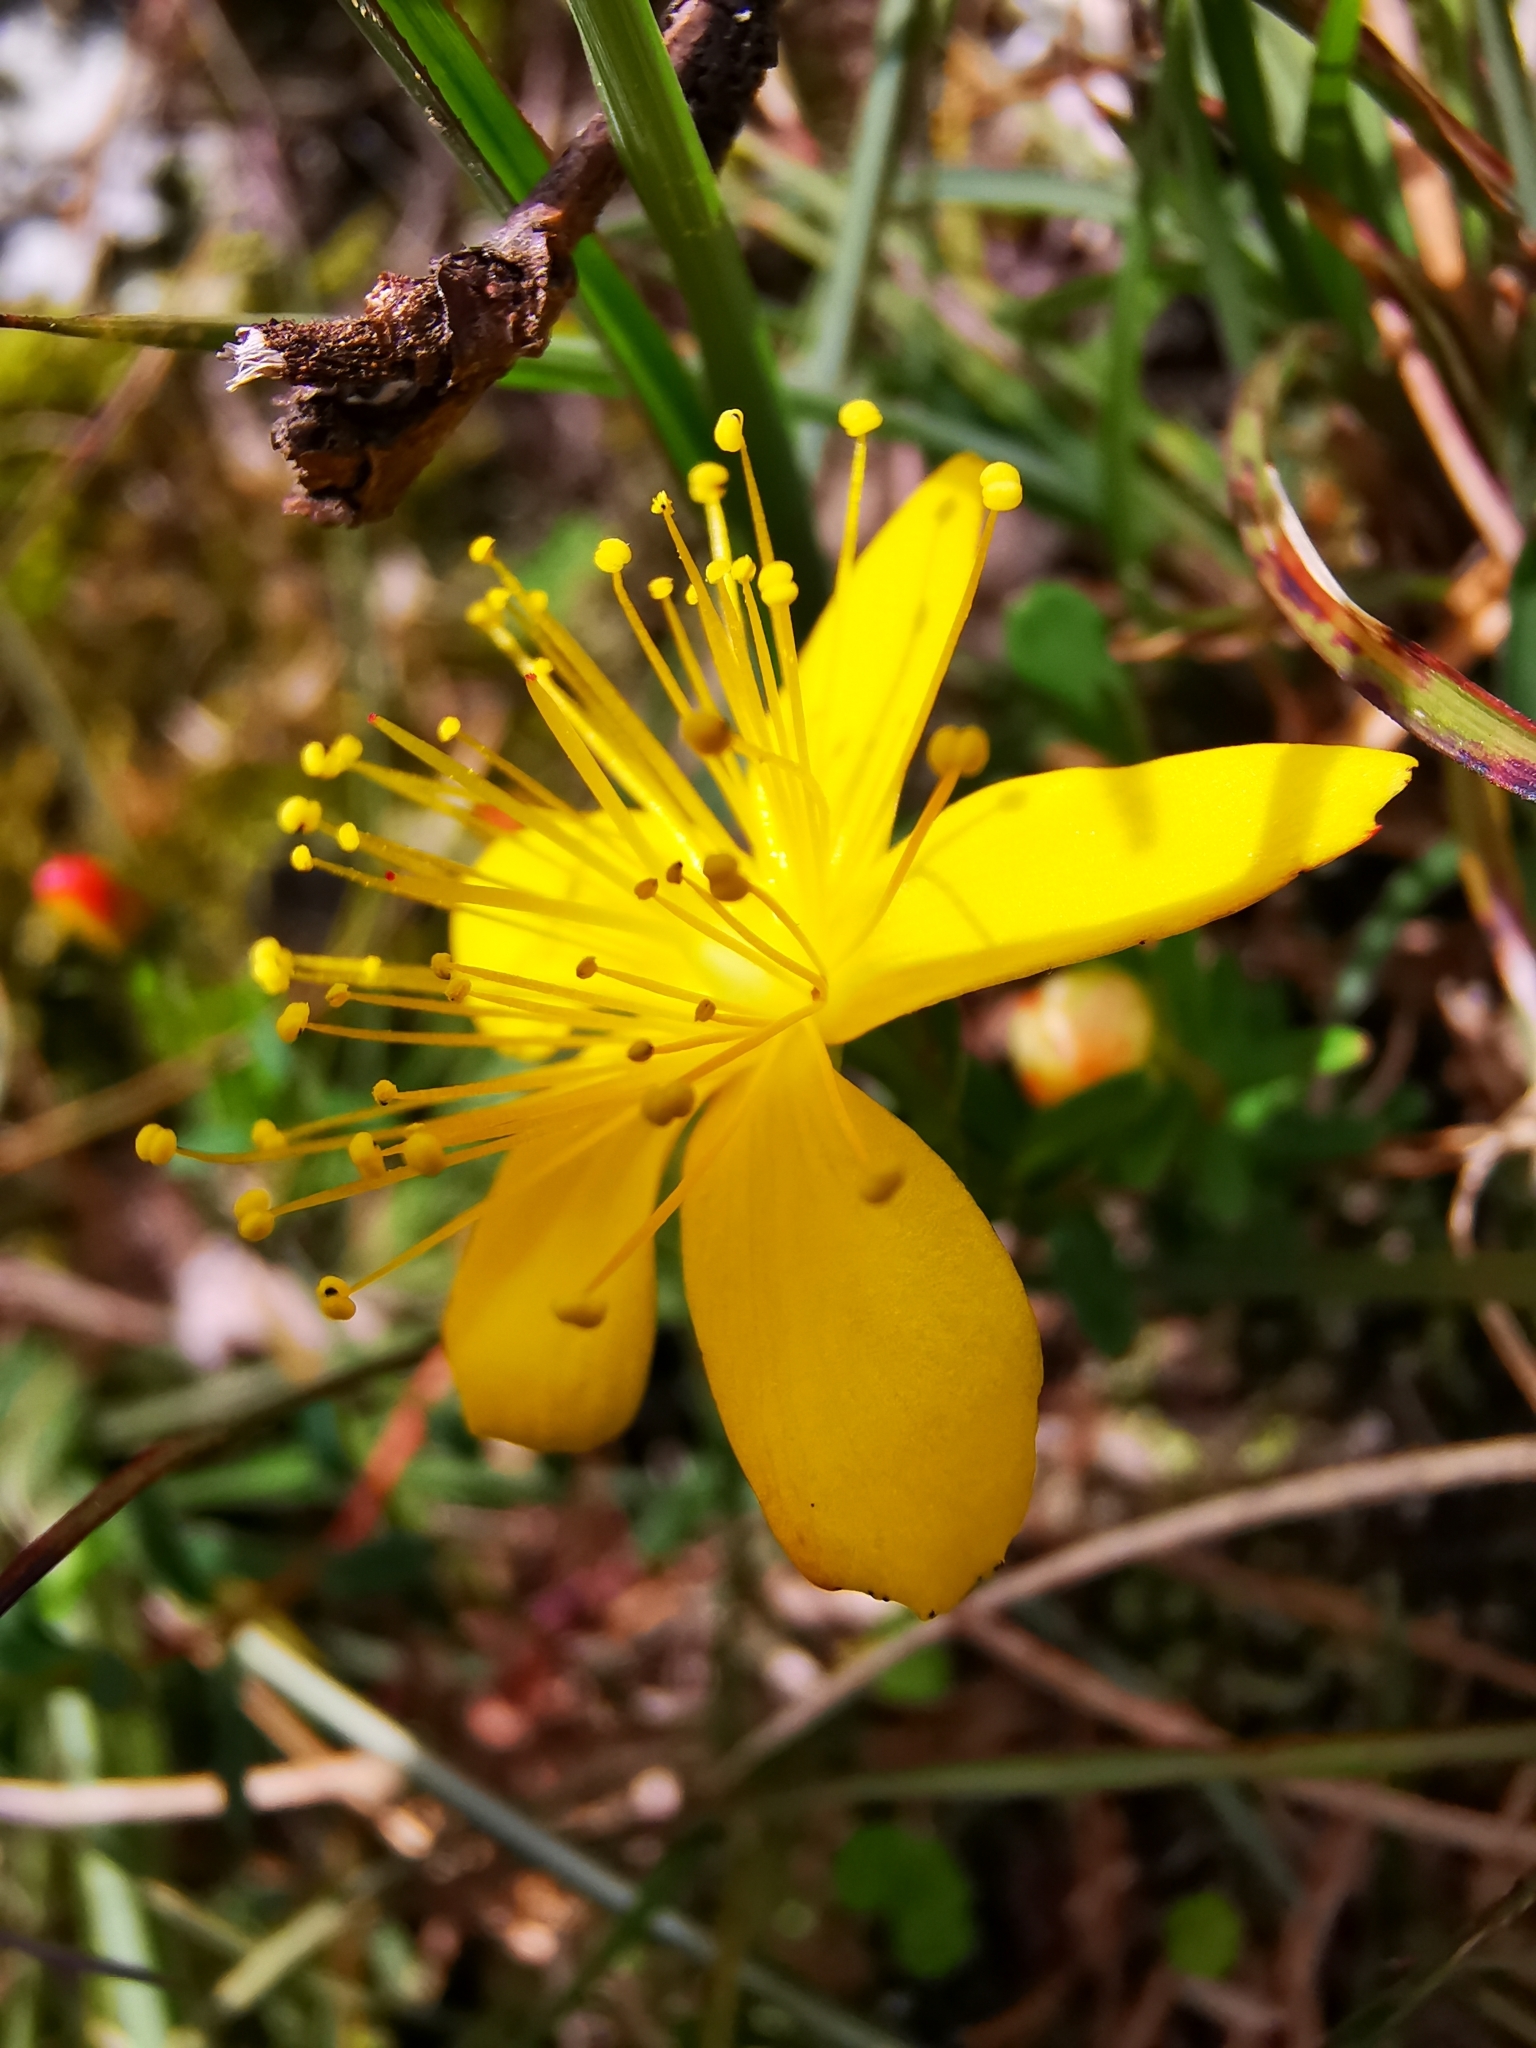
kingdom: Plantae
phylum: Tracheophyta
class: Magnoliopsida
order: Malpighiales
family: Hypericaceae
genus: Hypericum
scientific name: Hypericum nagasawae
